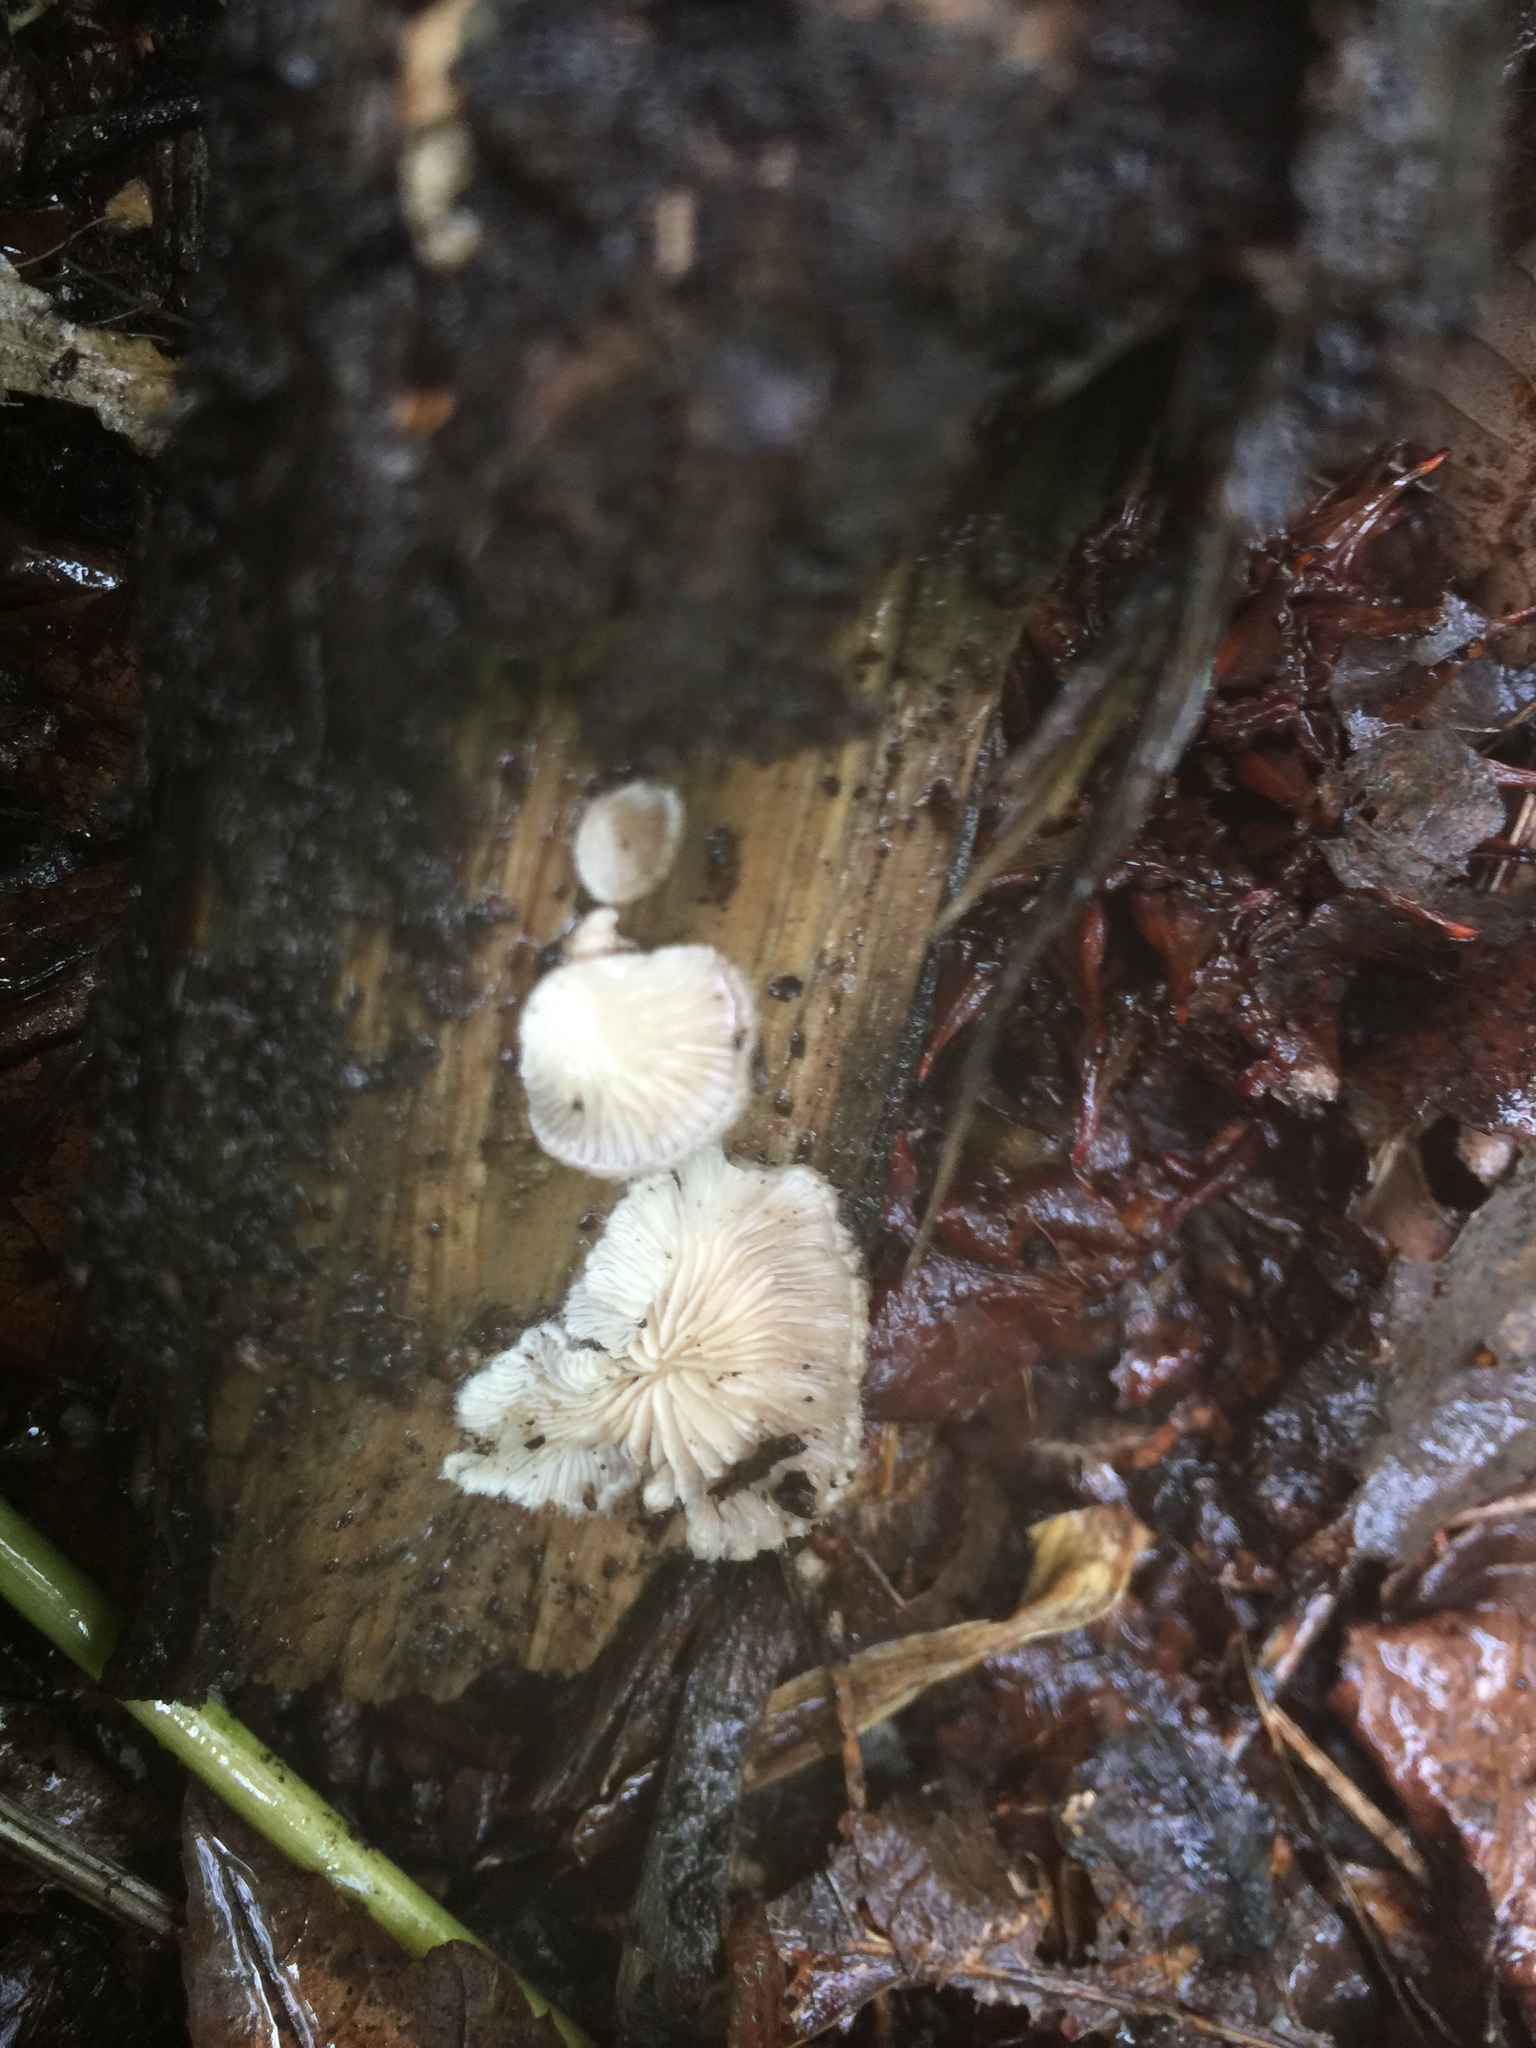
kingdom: Fungi
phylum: Basidiomycota
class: Agaricomycetes
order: Agaricales
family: Schizophyllaceae
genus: Schizophyllum
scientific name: Schizophyllum commune
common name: Common porecrust
